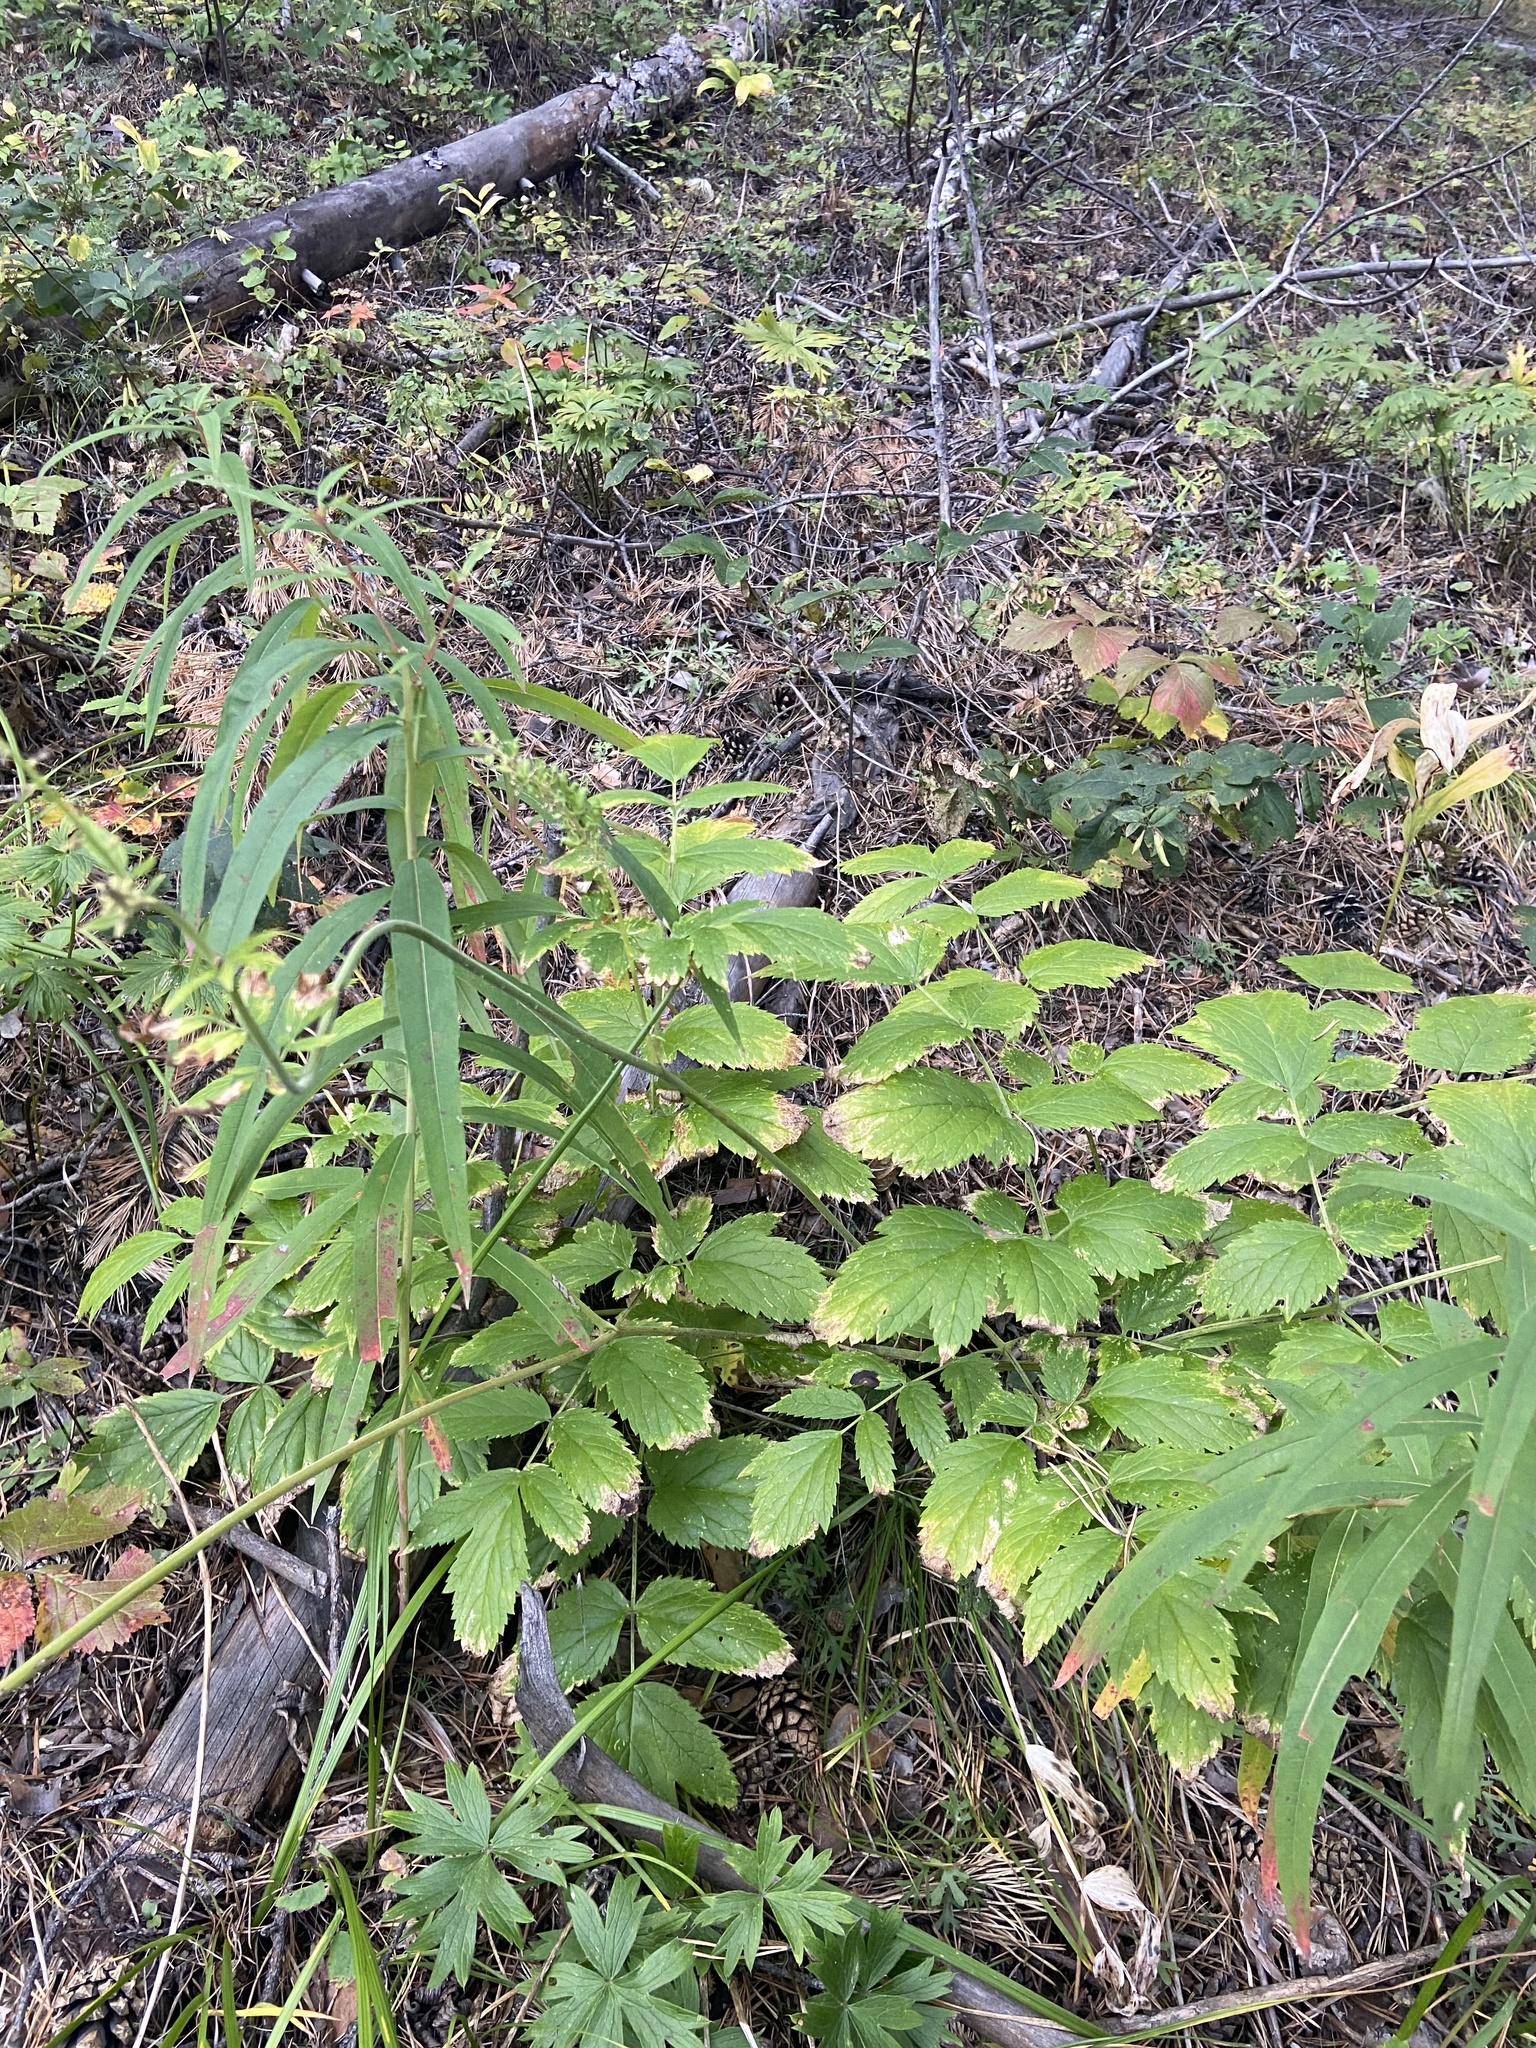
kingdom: Plantae
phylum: Tracheophyta
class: Magnoliopsida
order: Ranunculales
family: Ranunculaceae
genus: Actaea
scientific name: Actaea cimicifuga
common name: Chinese cimicifuga
